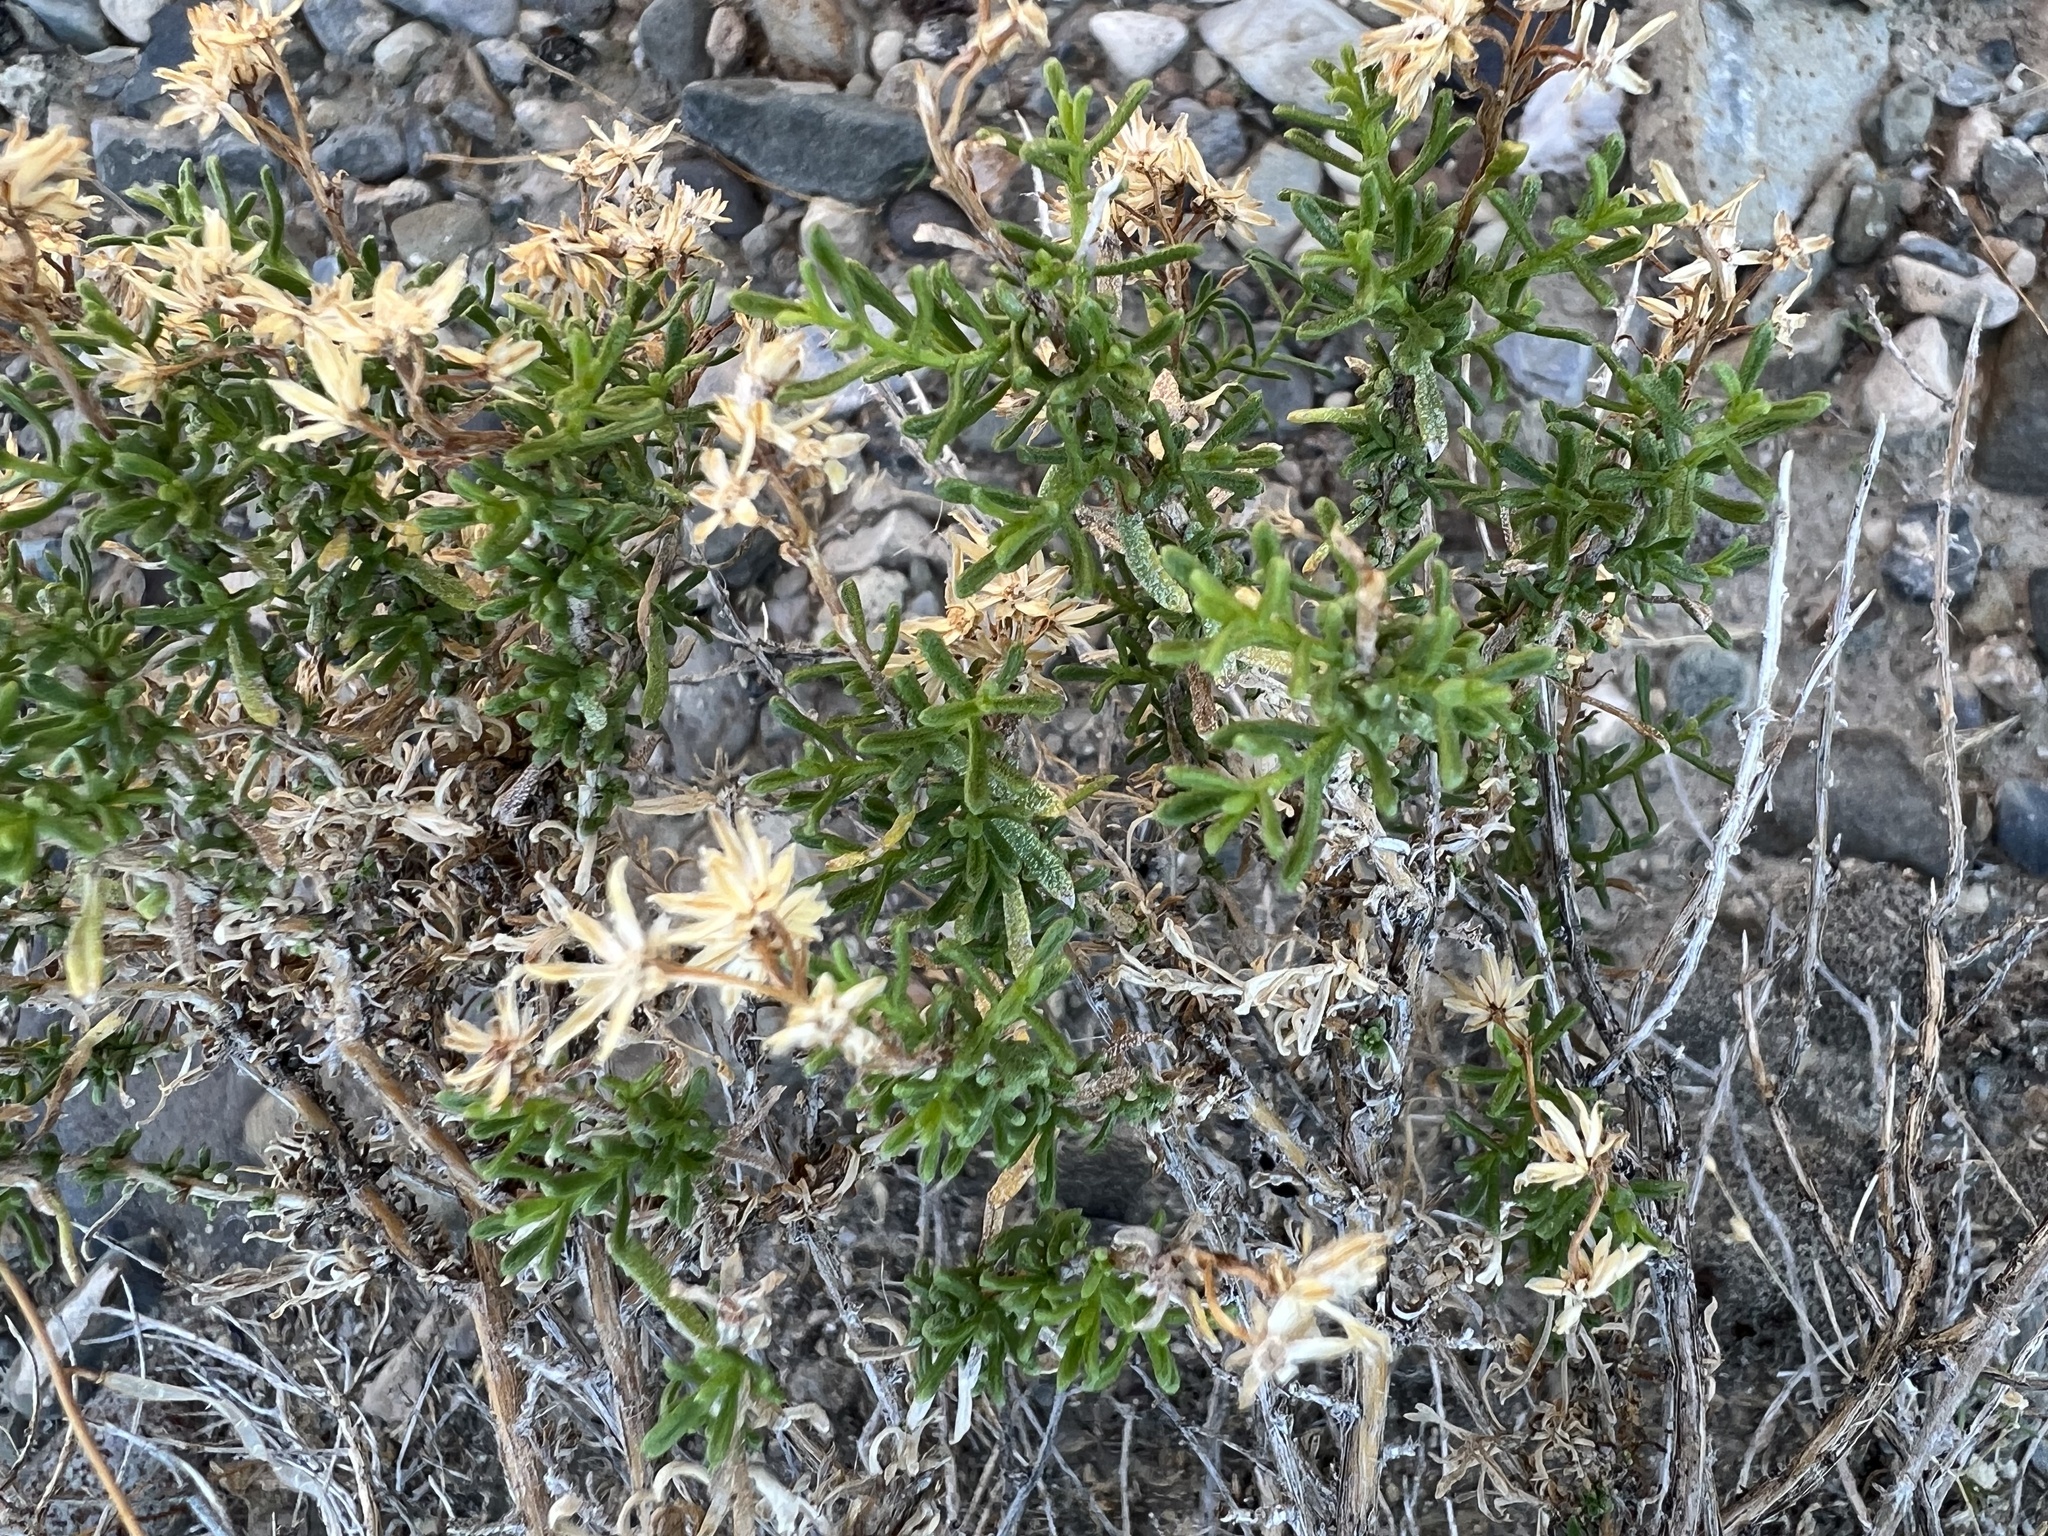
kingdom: Plantae
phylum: Tracheophyta
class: Magnoliopsida
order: Asterales
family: Asteraceae
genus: Ericameria
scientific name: Ericameria cooperi
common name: Cooper's goldenbush
